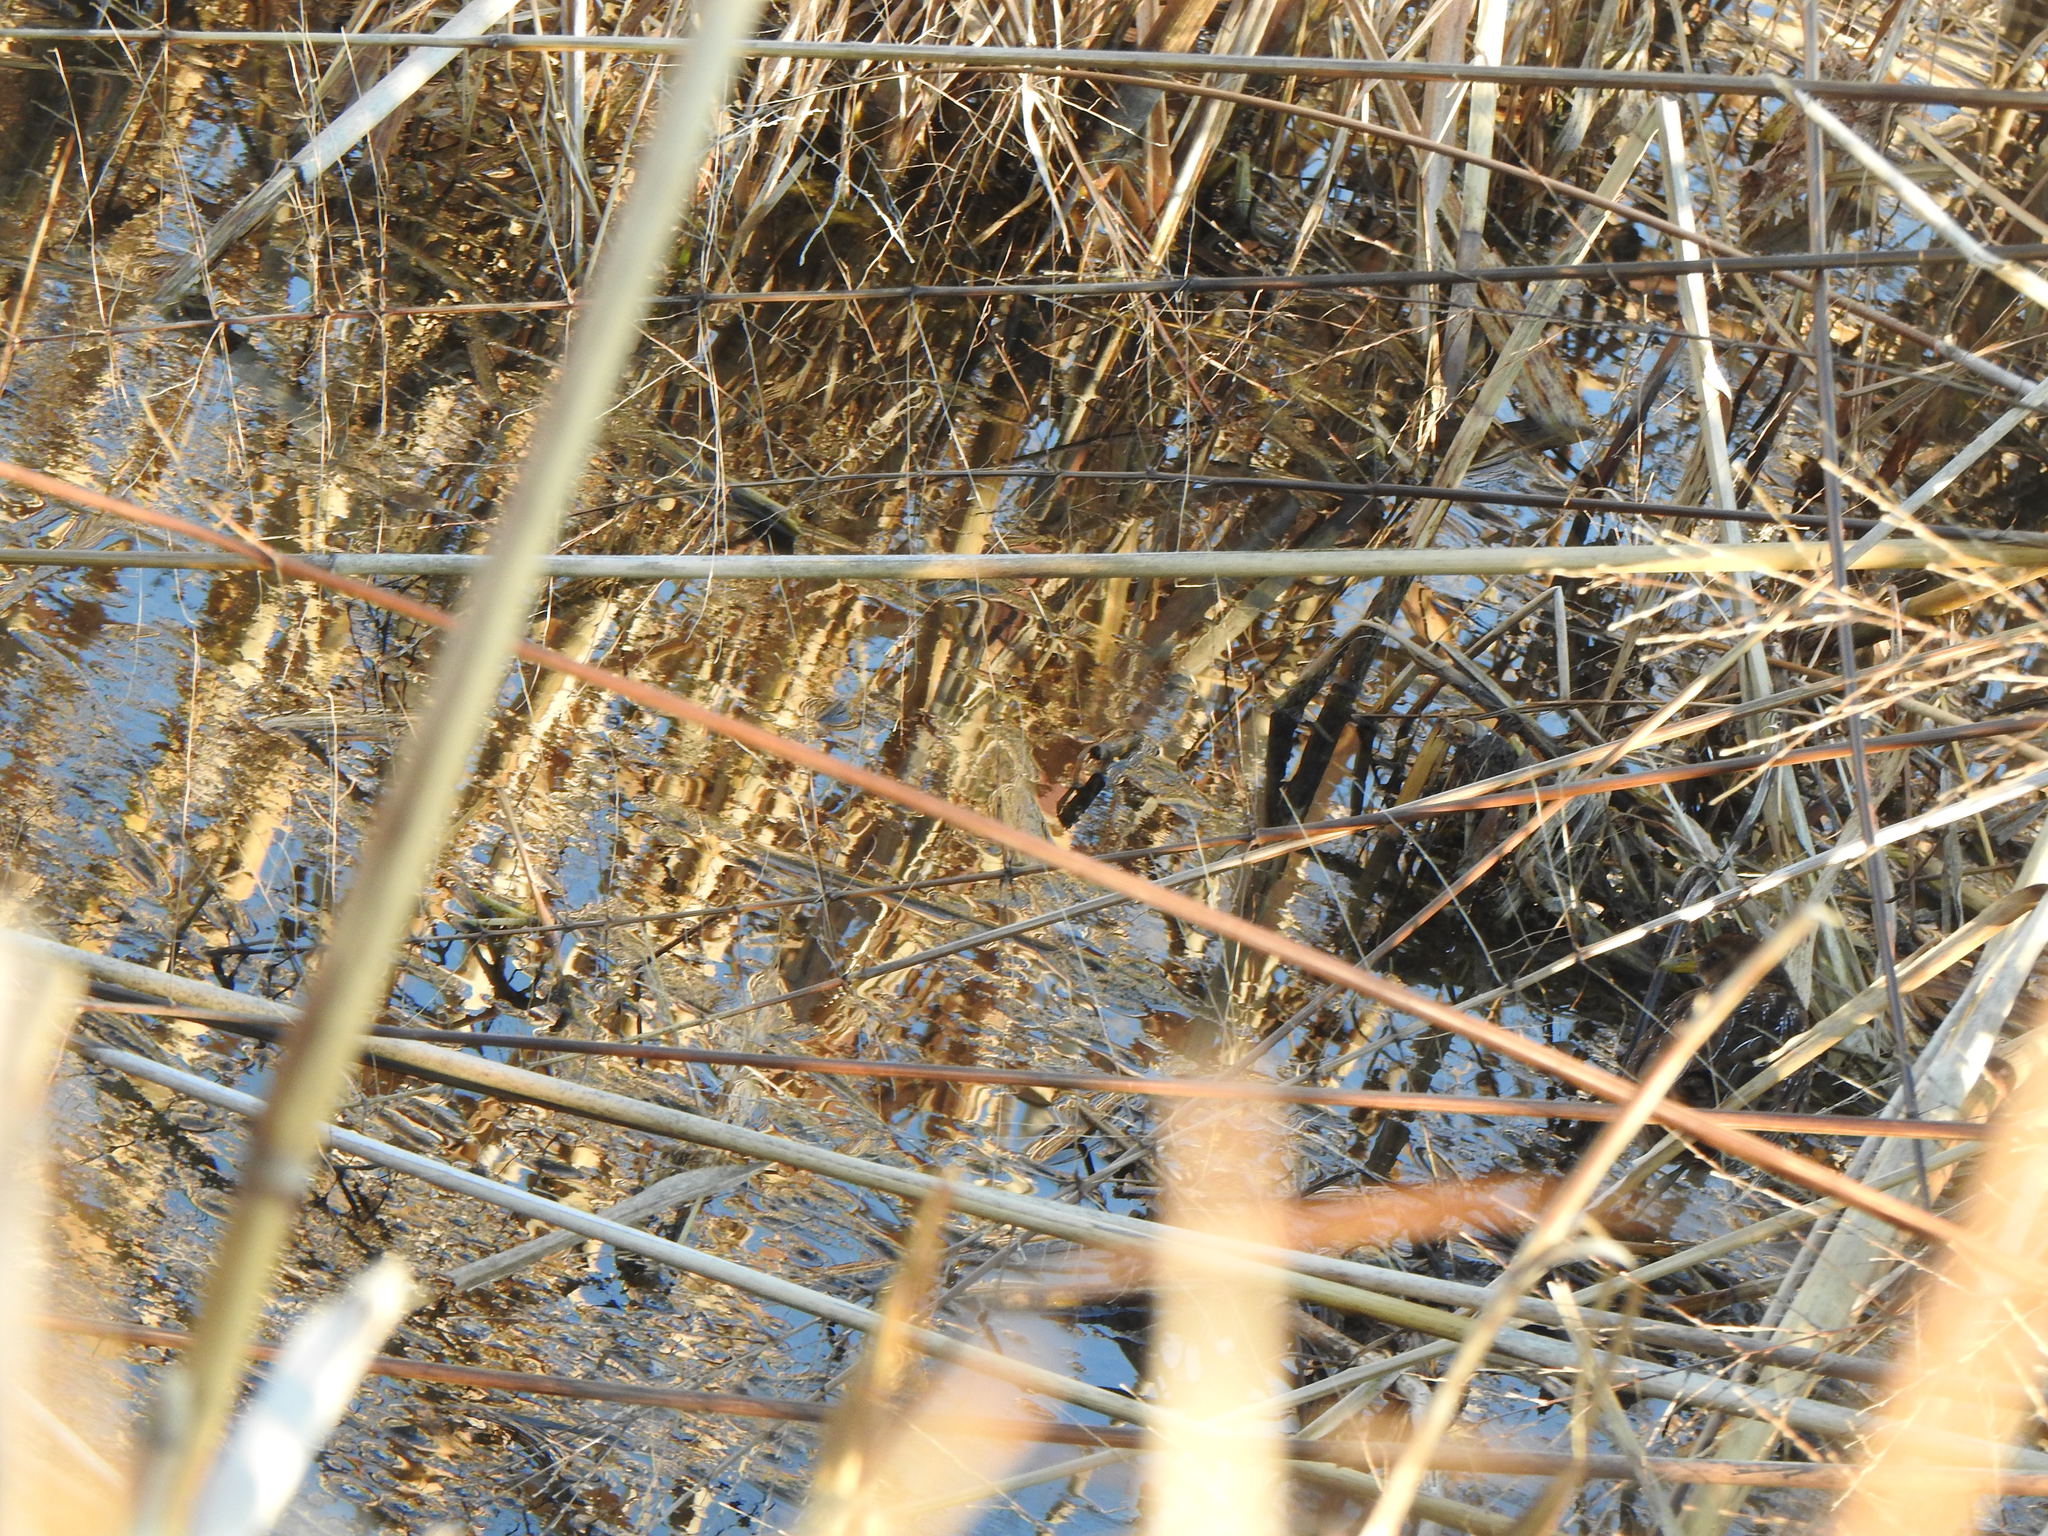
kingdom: Animalia
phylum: Chordata
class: Aves
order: Gruiformes
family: Rallidae
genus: Porzana
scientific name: Porzana carolina
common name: Sora
